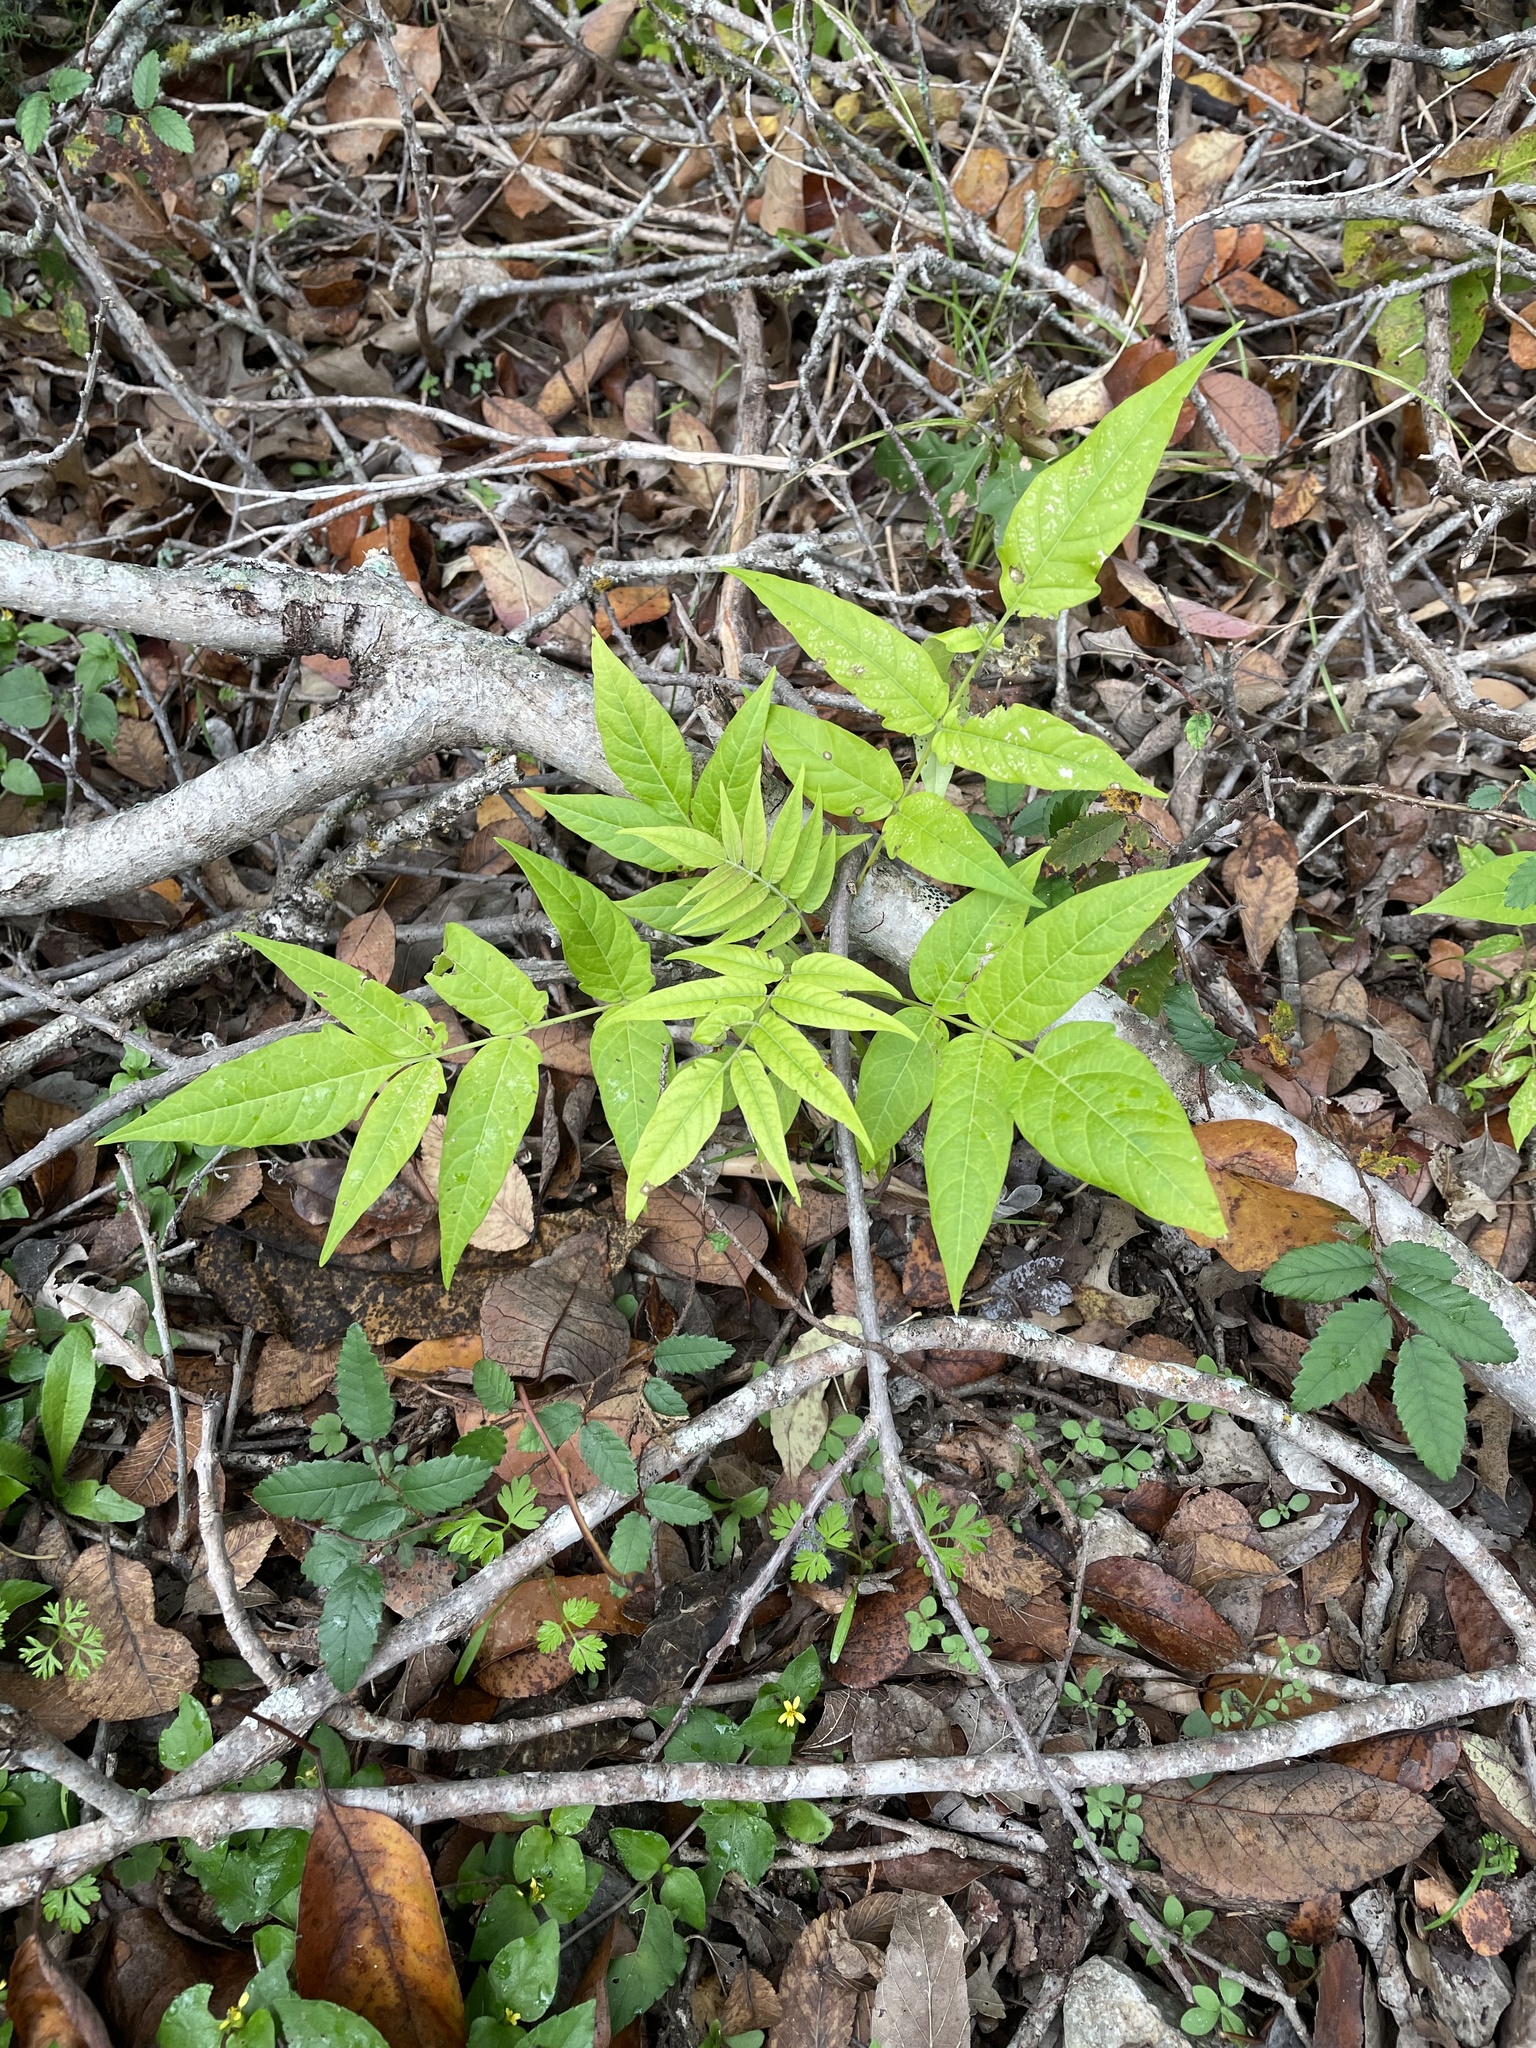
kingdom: Plantae
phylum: Tracheophyta
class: Magnoliopsida
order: Sapindales
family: Simaroubaceae
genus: Ailanthus
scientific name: Ailanthus altissima
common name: Tree-of-heaven
